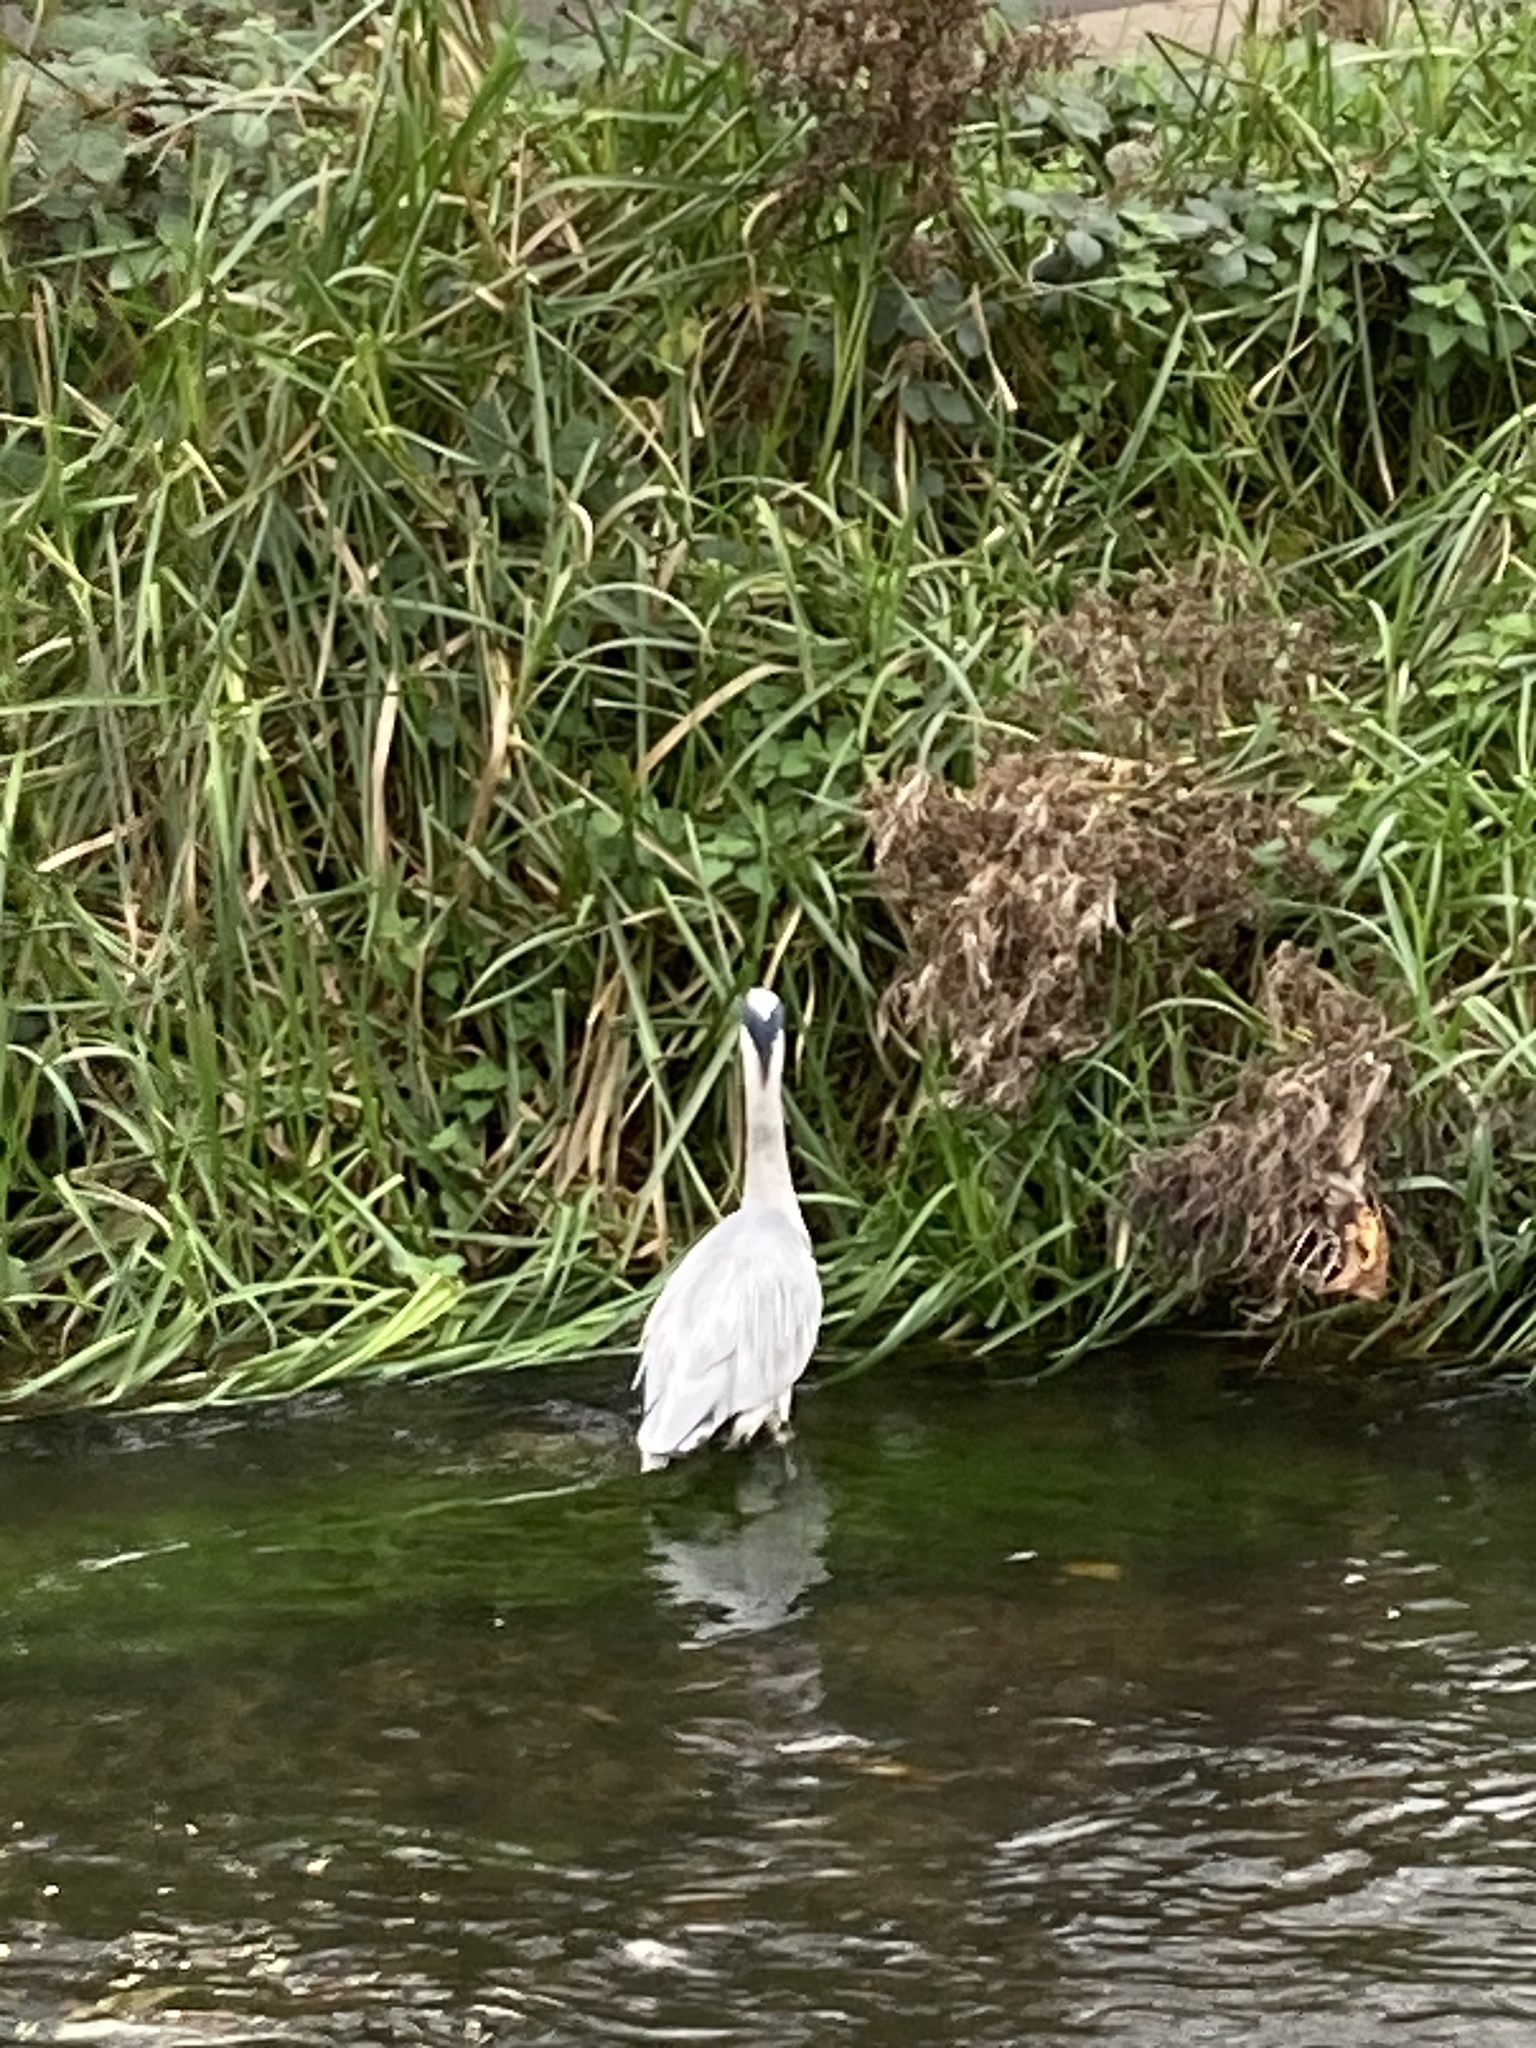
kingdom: Animalia
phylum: Chordata
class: Aves
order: Pelecaniformes
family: Ardeidae
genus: Ardea
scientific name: Ardea cinerea
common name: Grey heron
